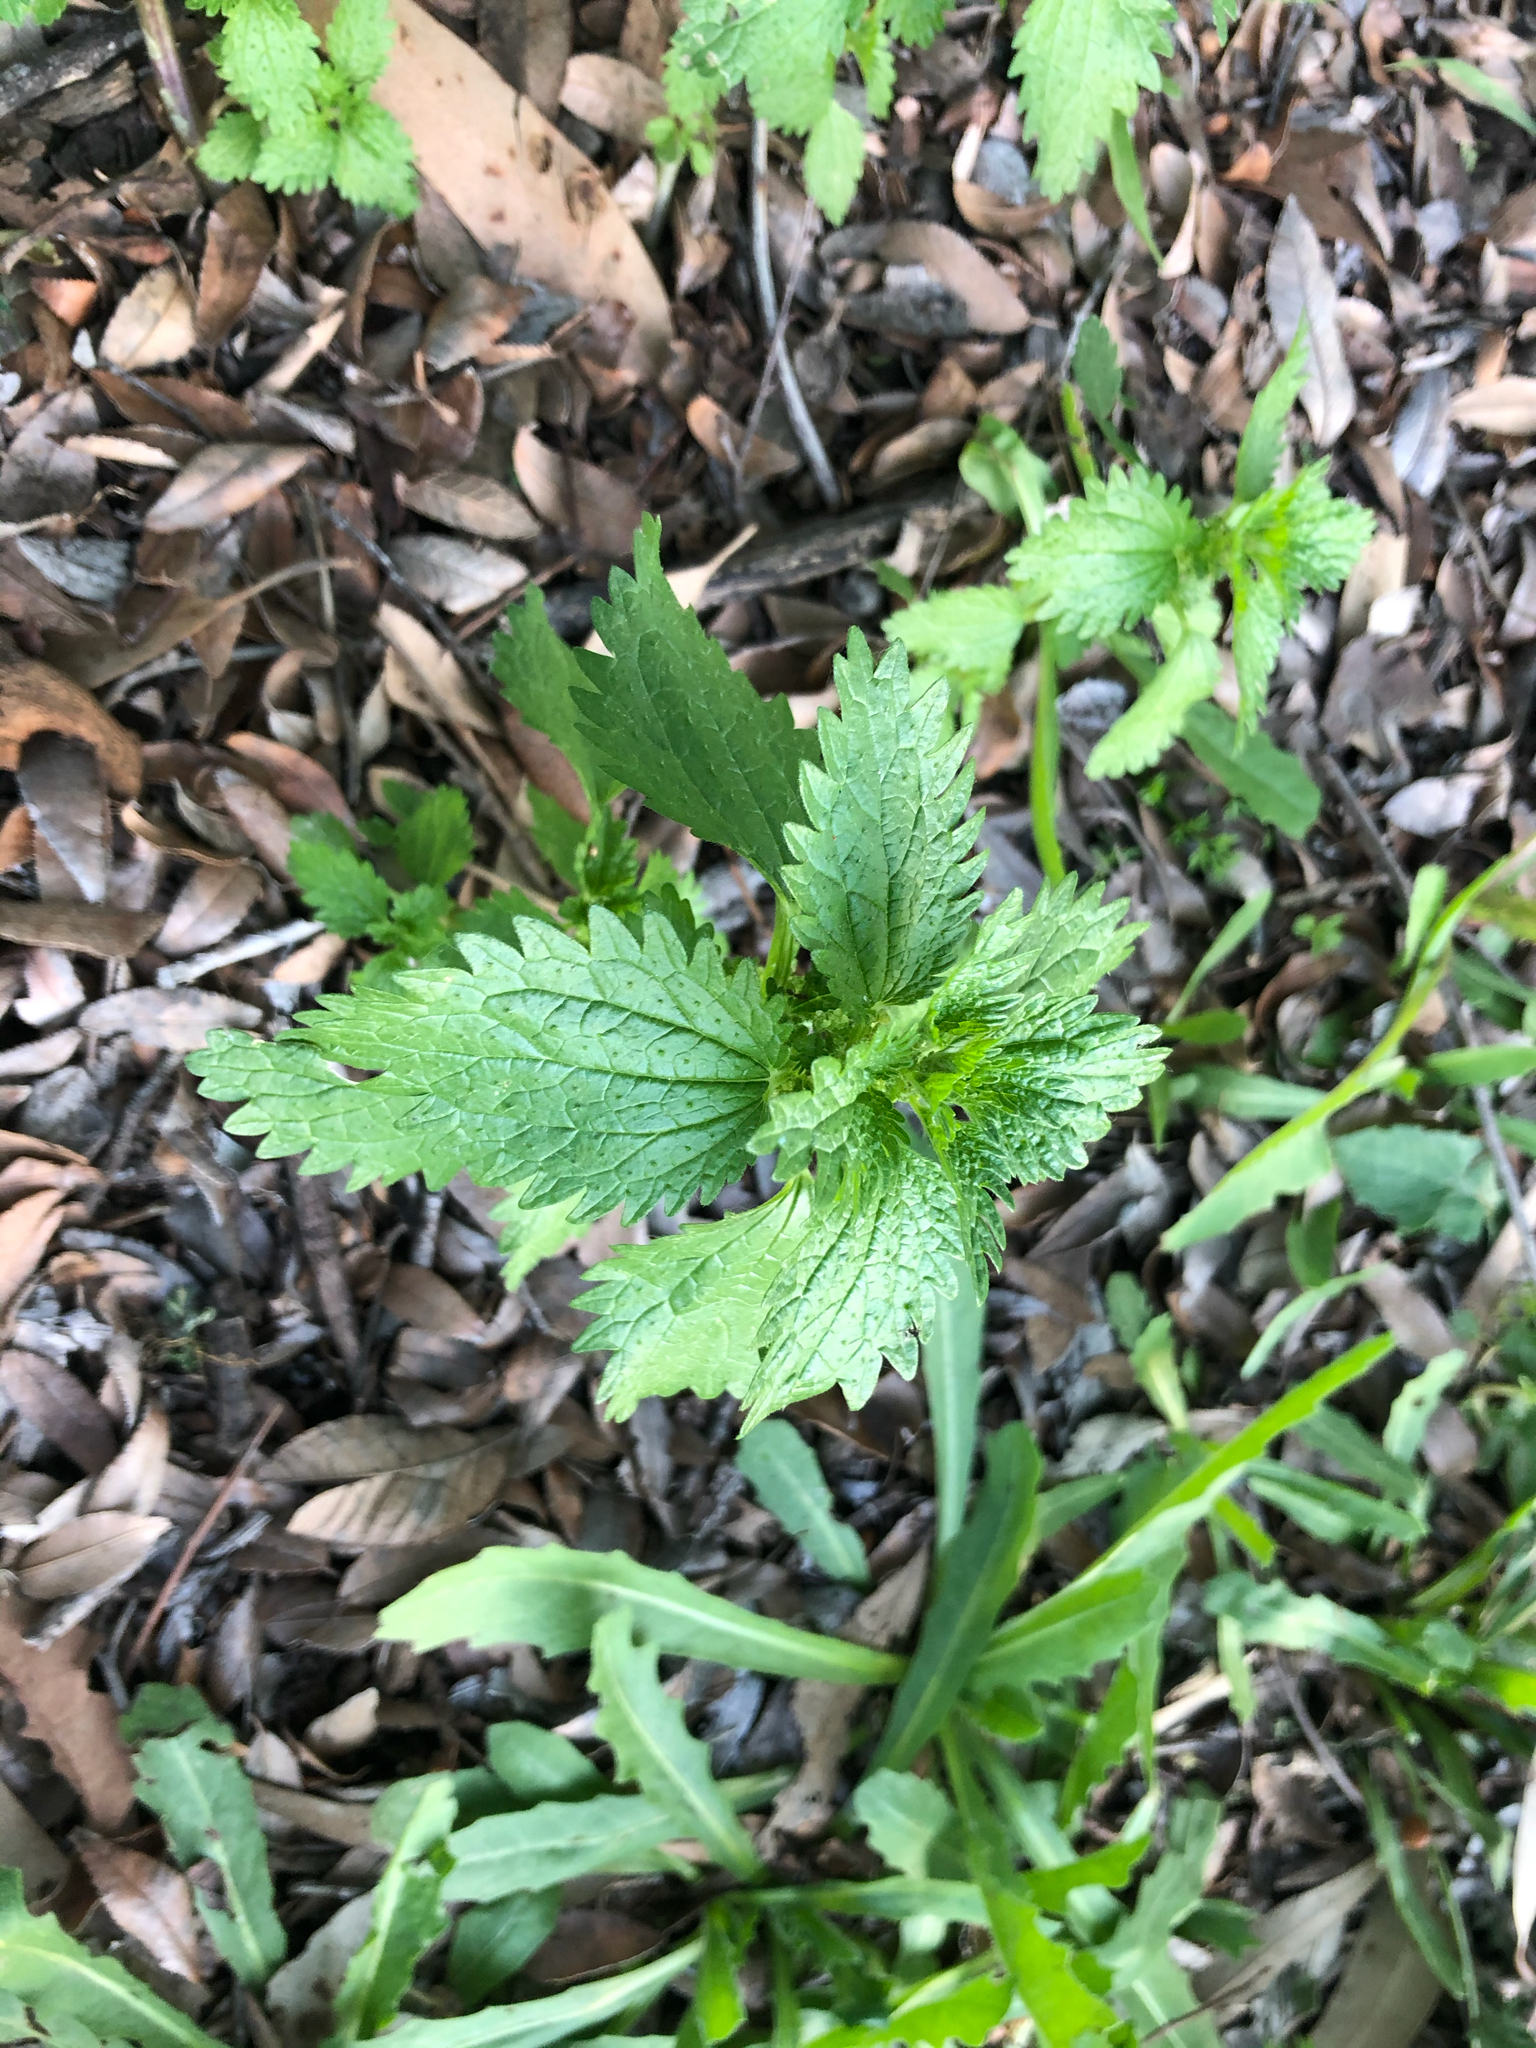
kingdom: Plantae
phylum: Tracheophyta
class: Magnoliopsida
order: Rosales
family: Urticaceae
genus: Urtica
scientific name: Urtica urens
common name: Dwarf nettle
